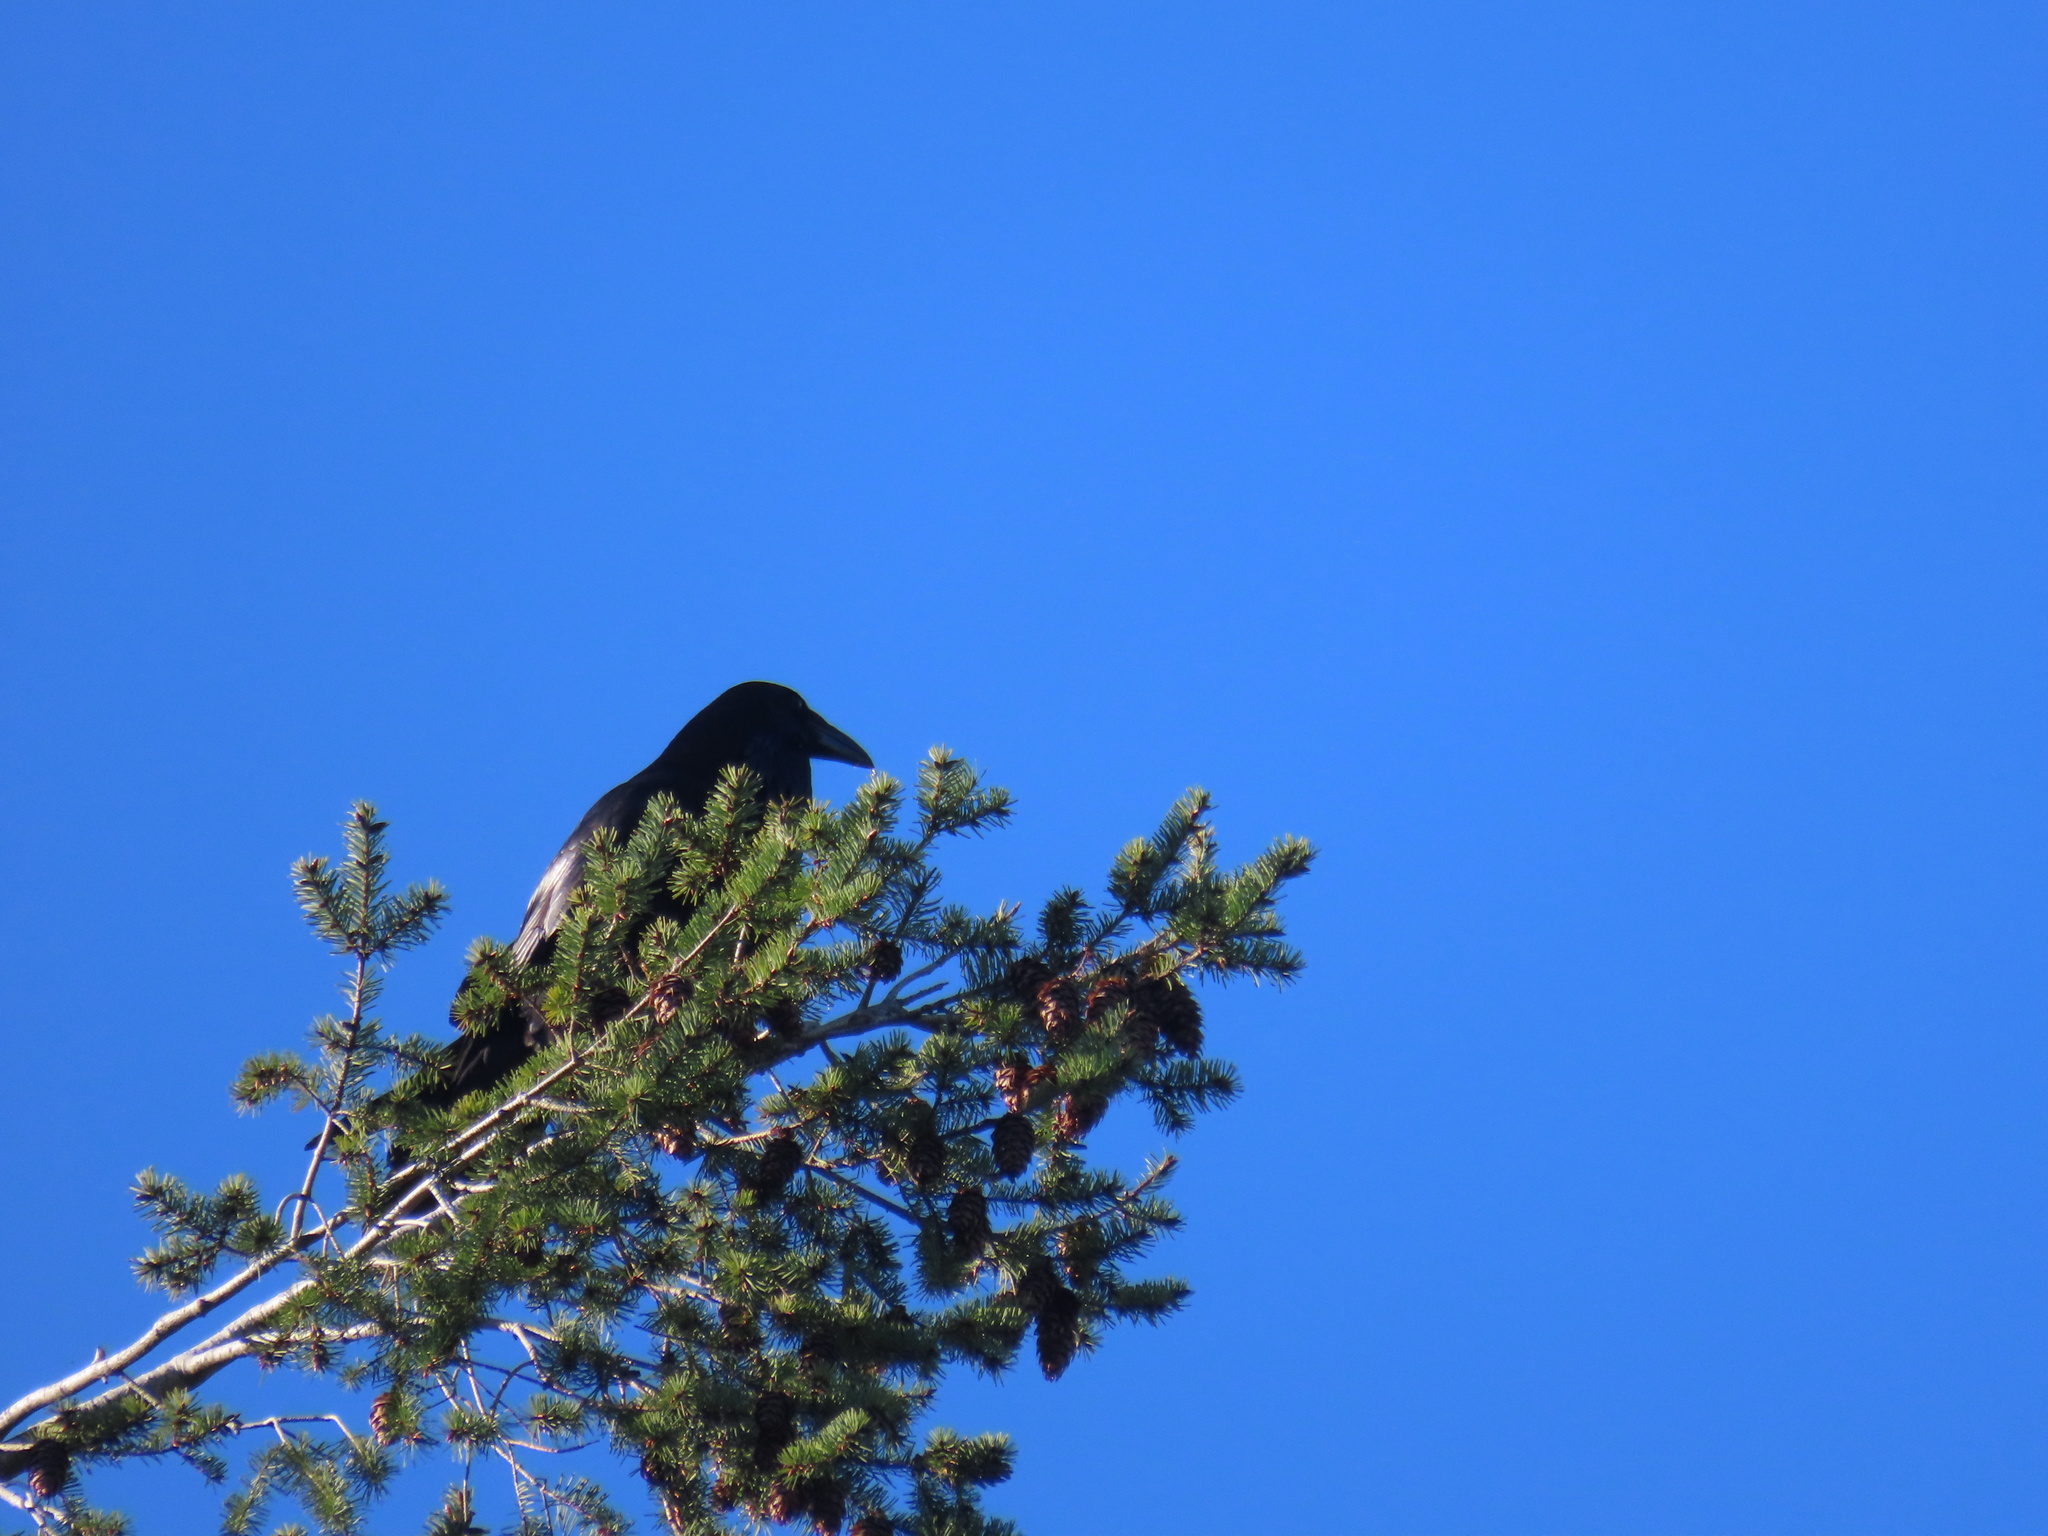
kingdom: Animalia
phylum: Chordata
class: Aves
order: Passeriformes
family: Corvidae
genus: Corvus
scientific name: Corvus corax
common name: Common raven
